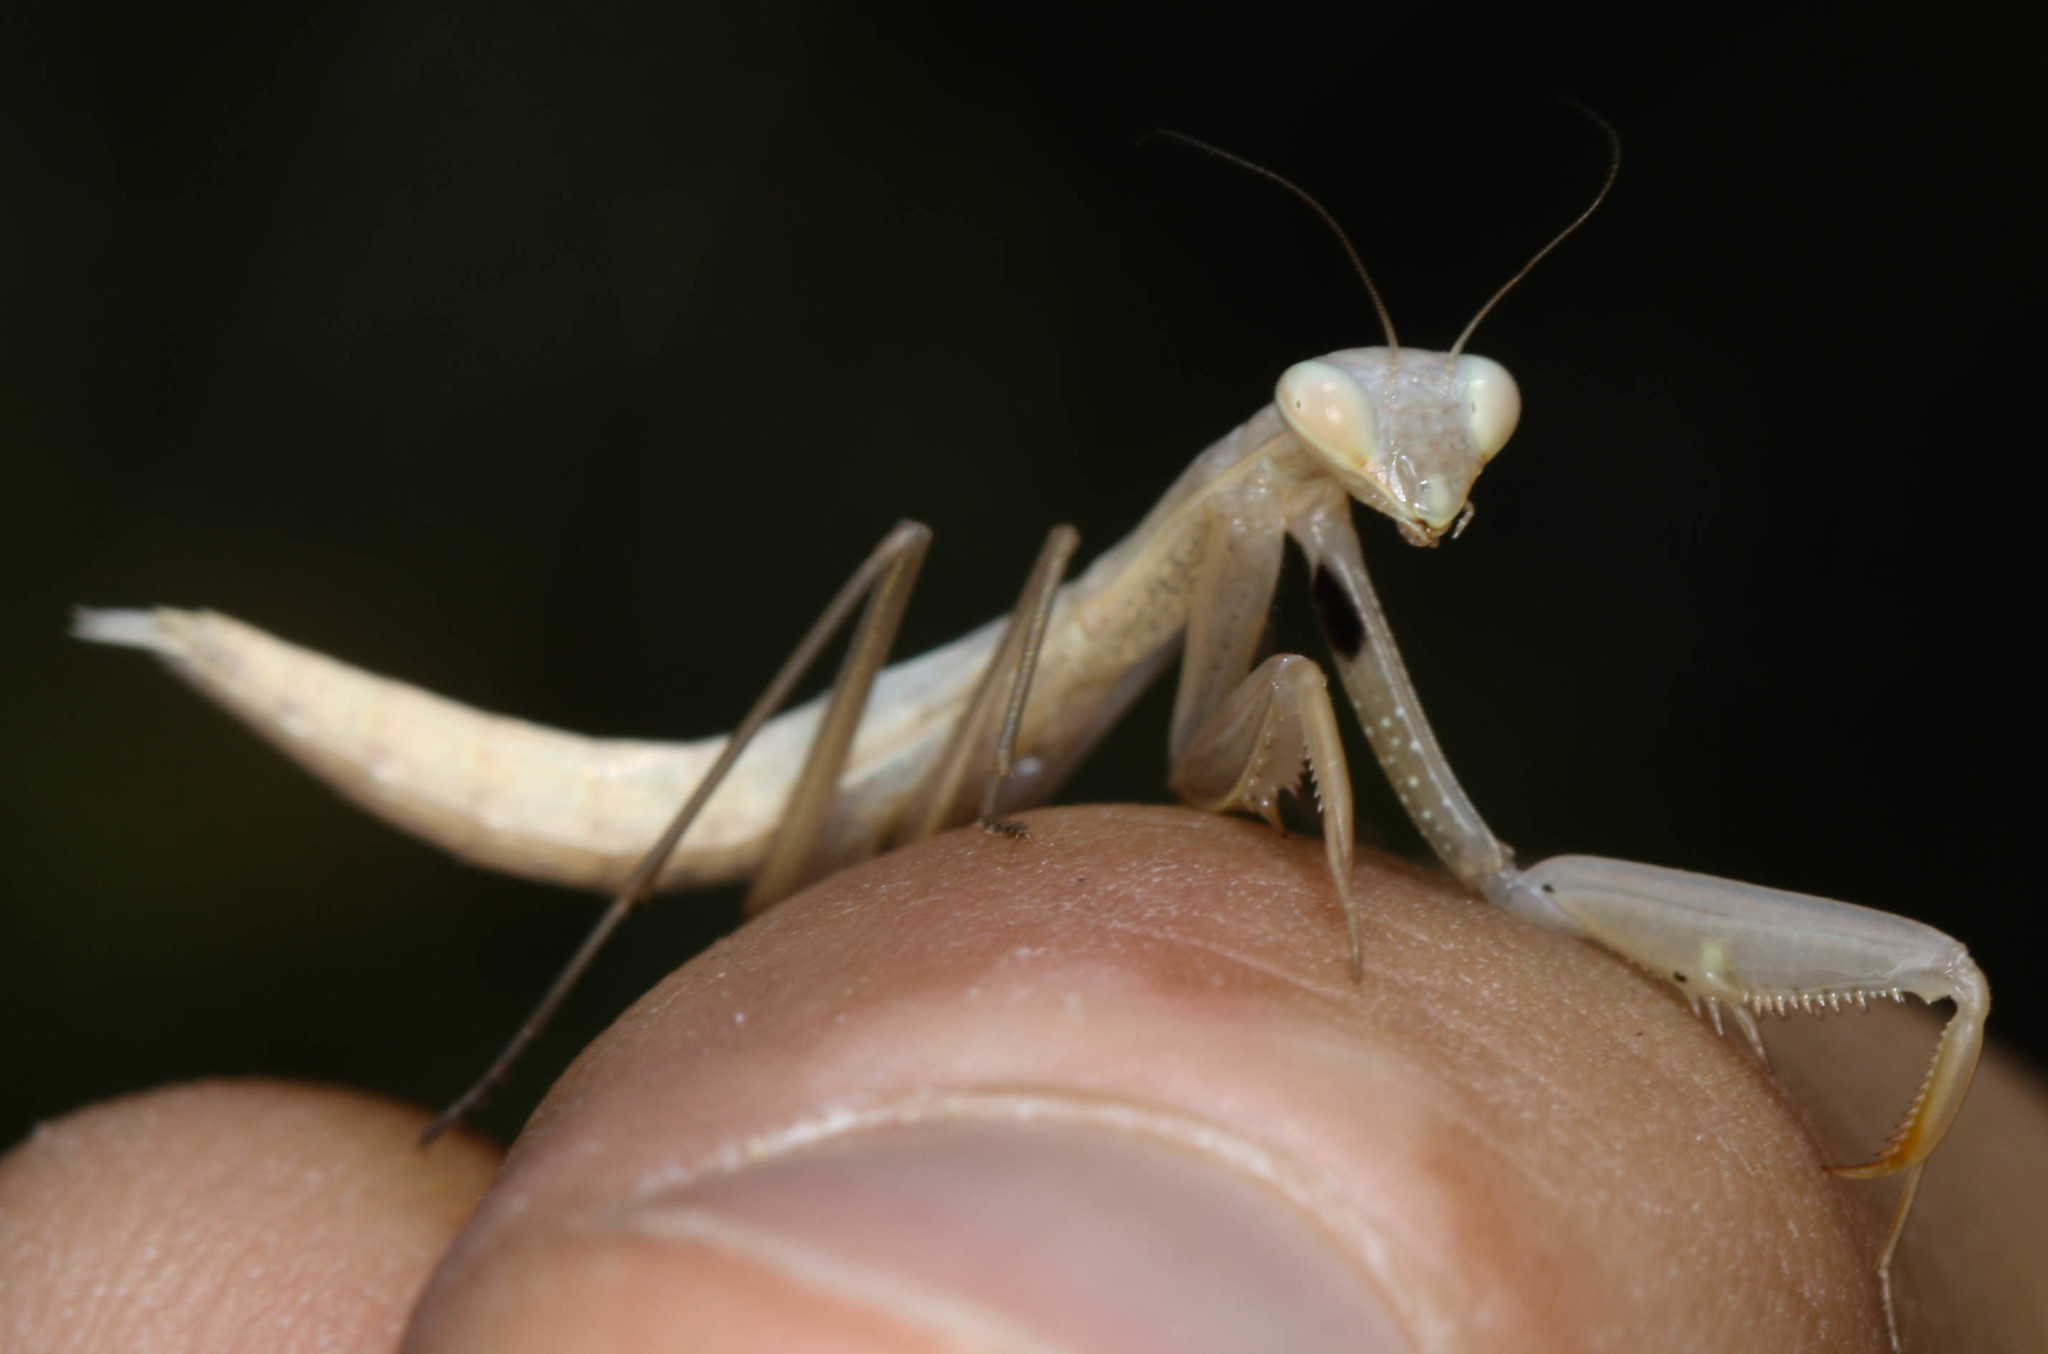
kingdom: Animalia
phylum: Arthropoda
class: Insecta
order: Mantodea
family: Mantidae
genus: Mantis
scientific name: Mantis religiosa
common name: Praying mantis
